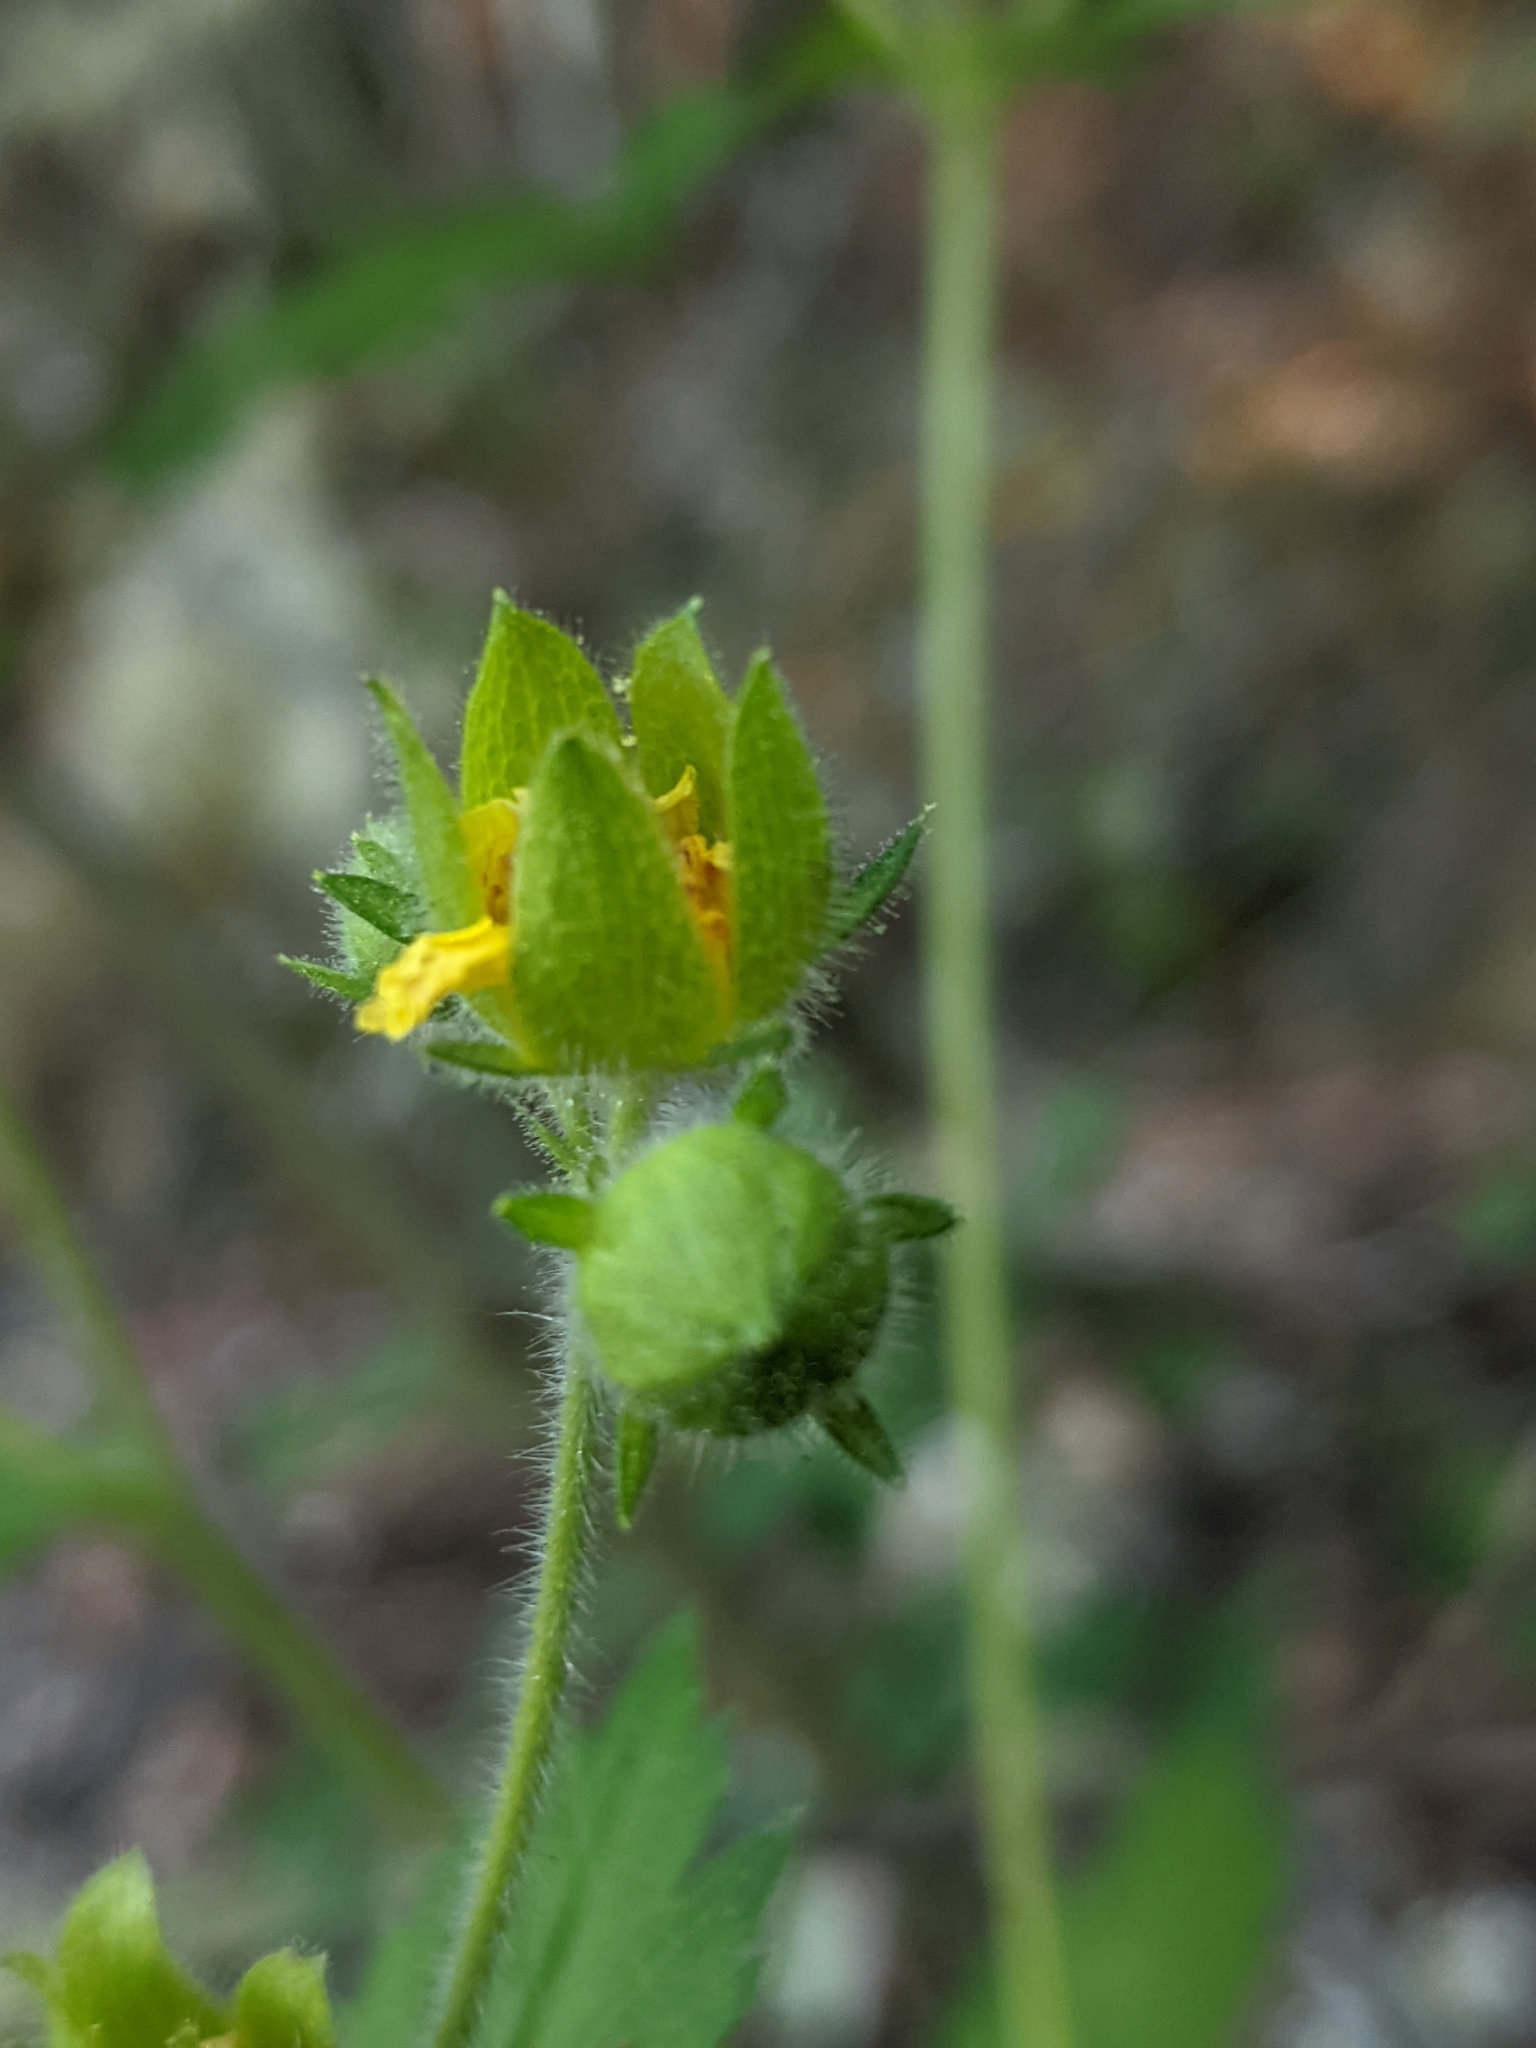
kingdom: Plantae
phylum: Tracheophyta
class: Magnoliopsida
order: Rosales
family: Rosaceae
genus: Drymocallis
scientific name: Drymocallis glandulosa
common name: Sticky cinquefoil
